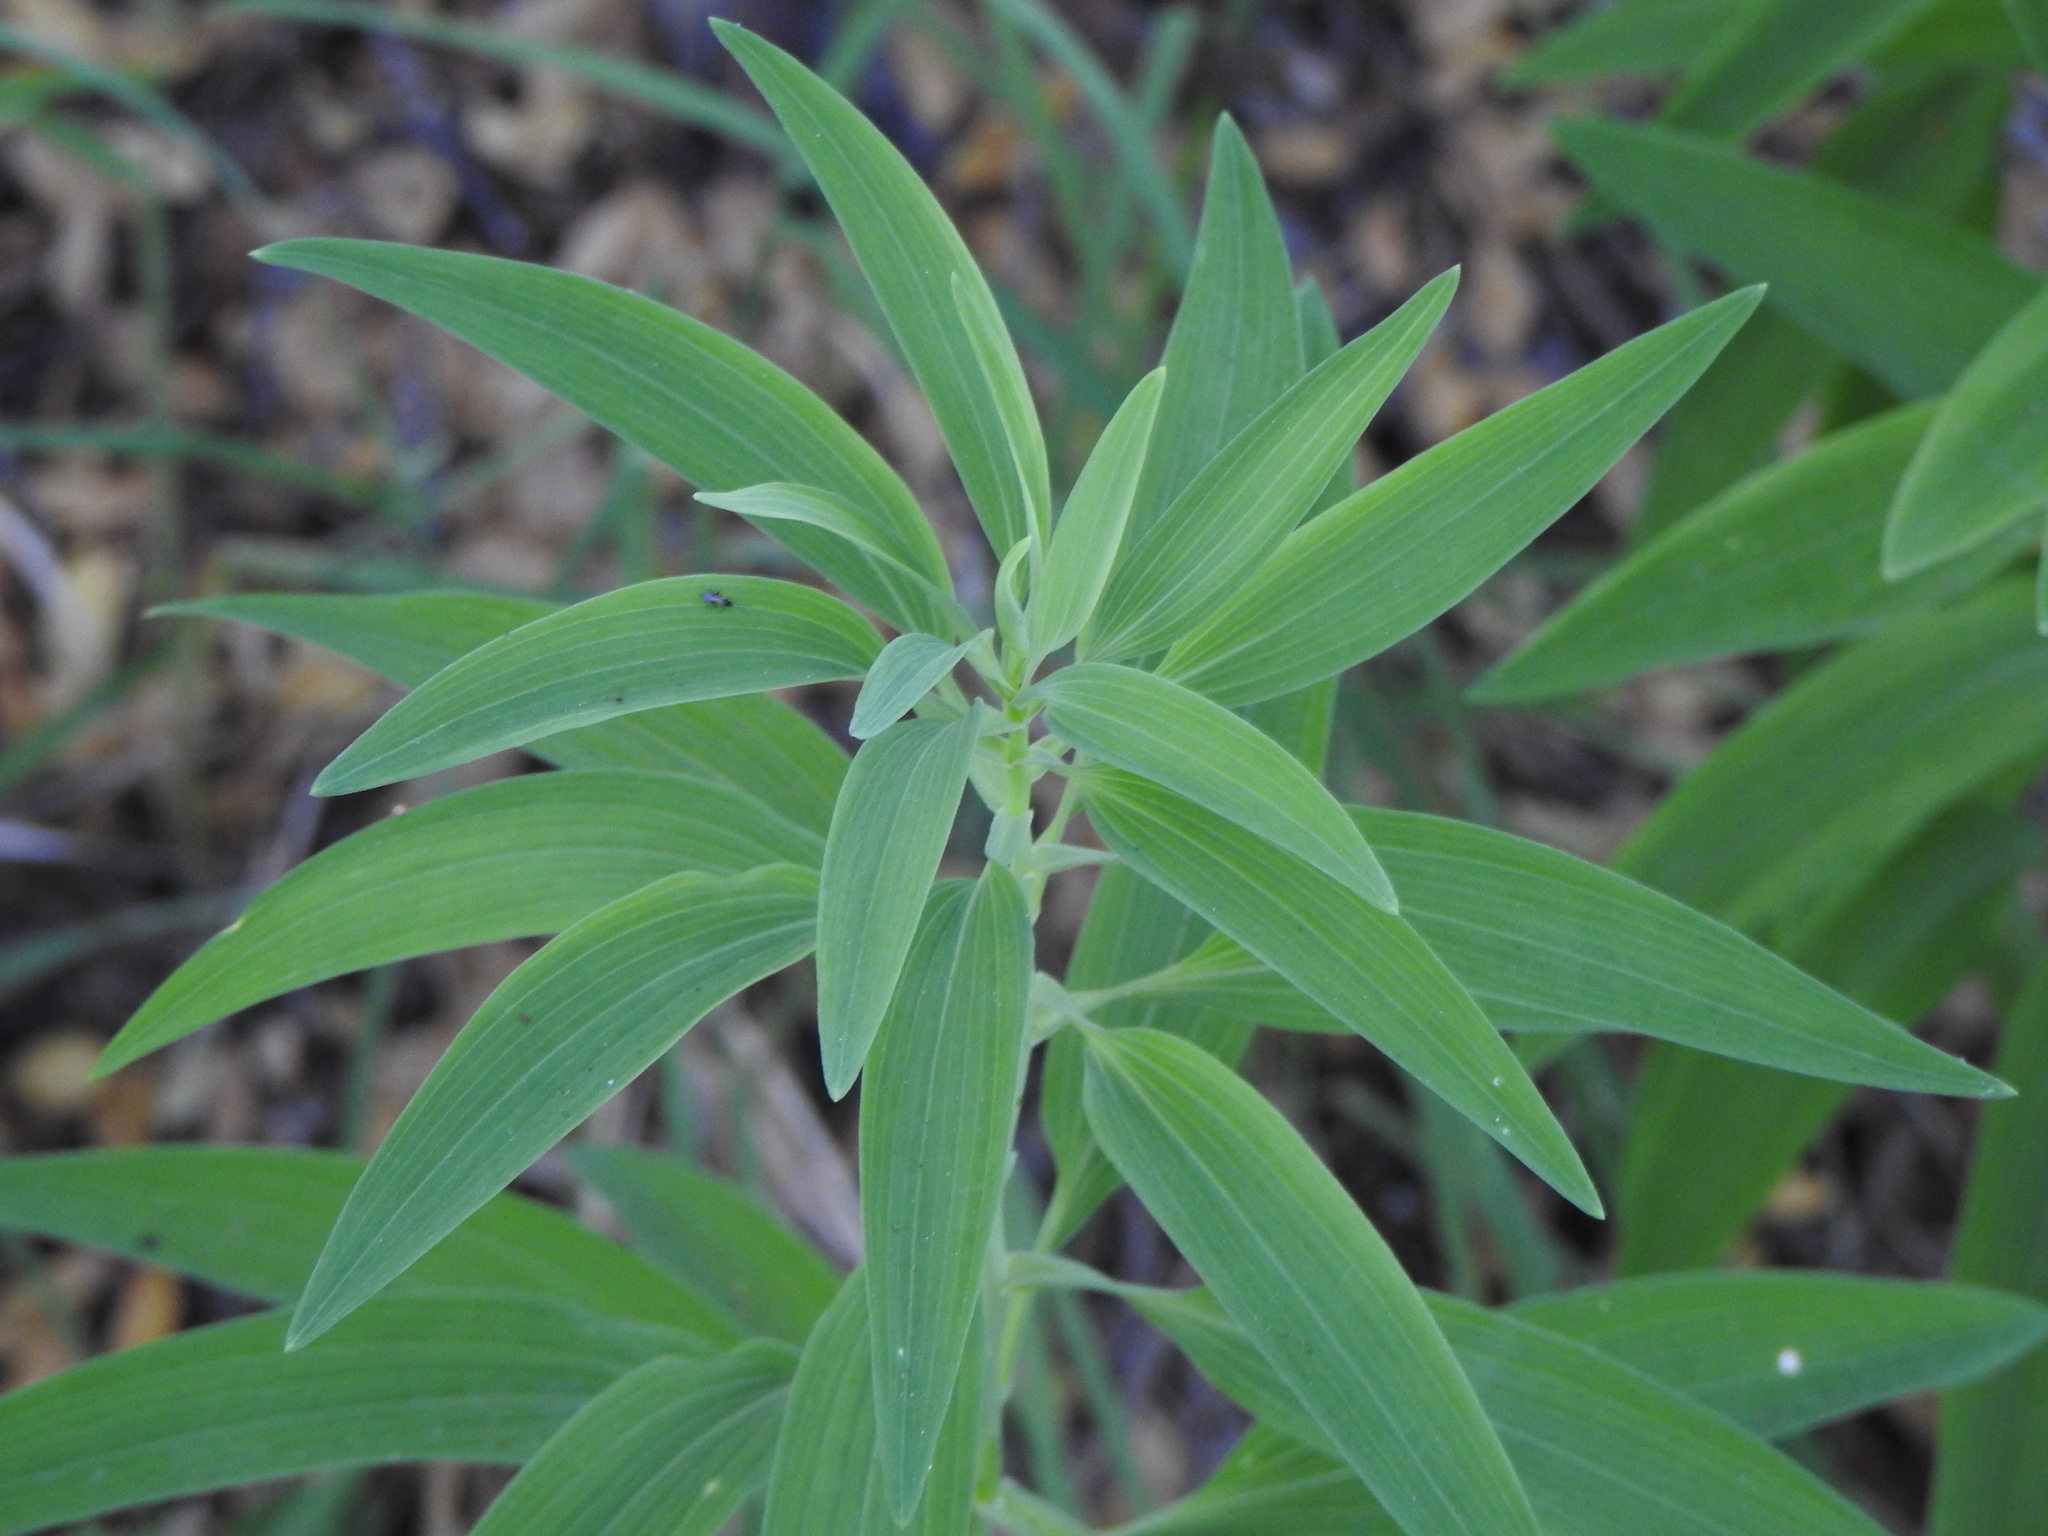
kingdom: Plantae
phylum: Tracheophyta
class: Liliopsida
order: Liliales
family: Alstroemeriaceae
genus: Alstroemeria
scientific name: Alstroemeria aurea
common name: Peruvian lily
